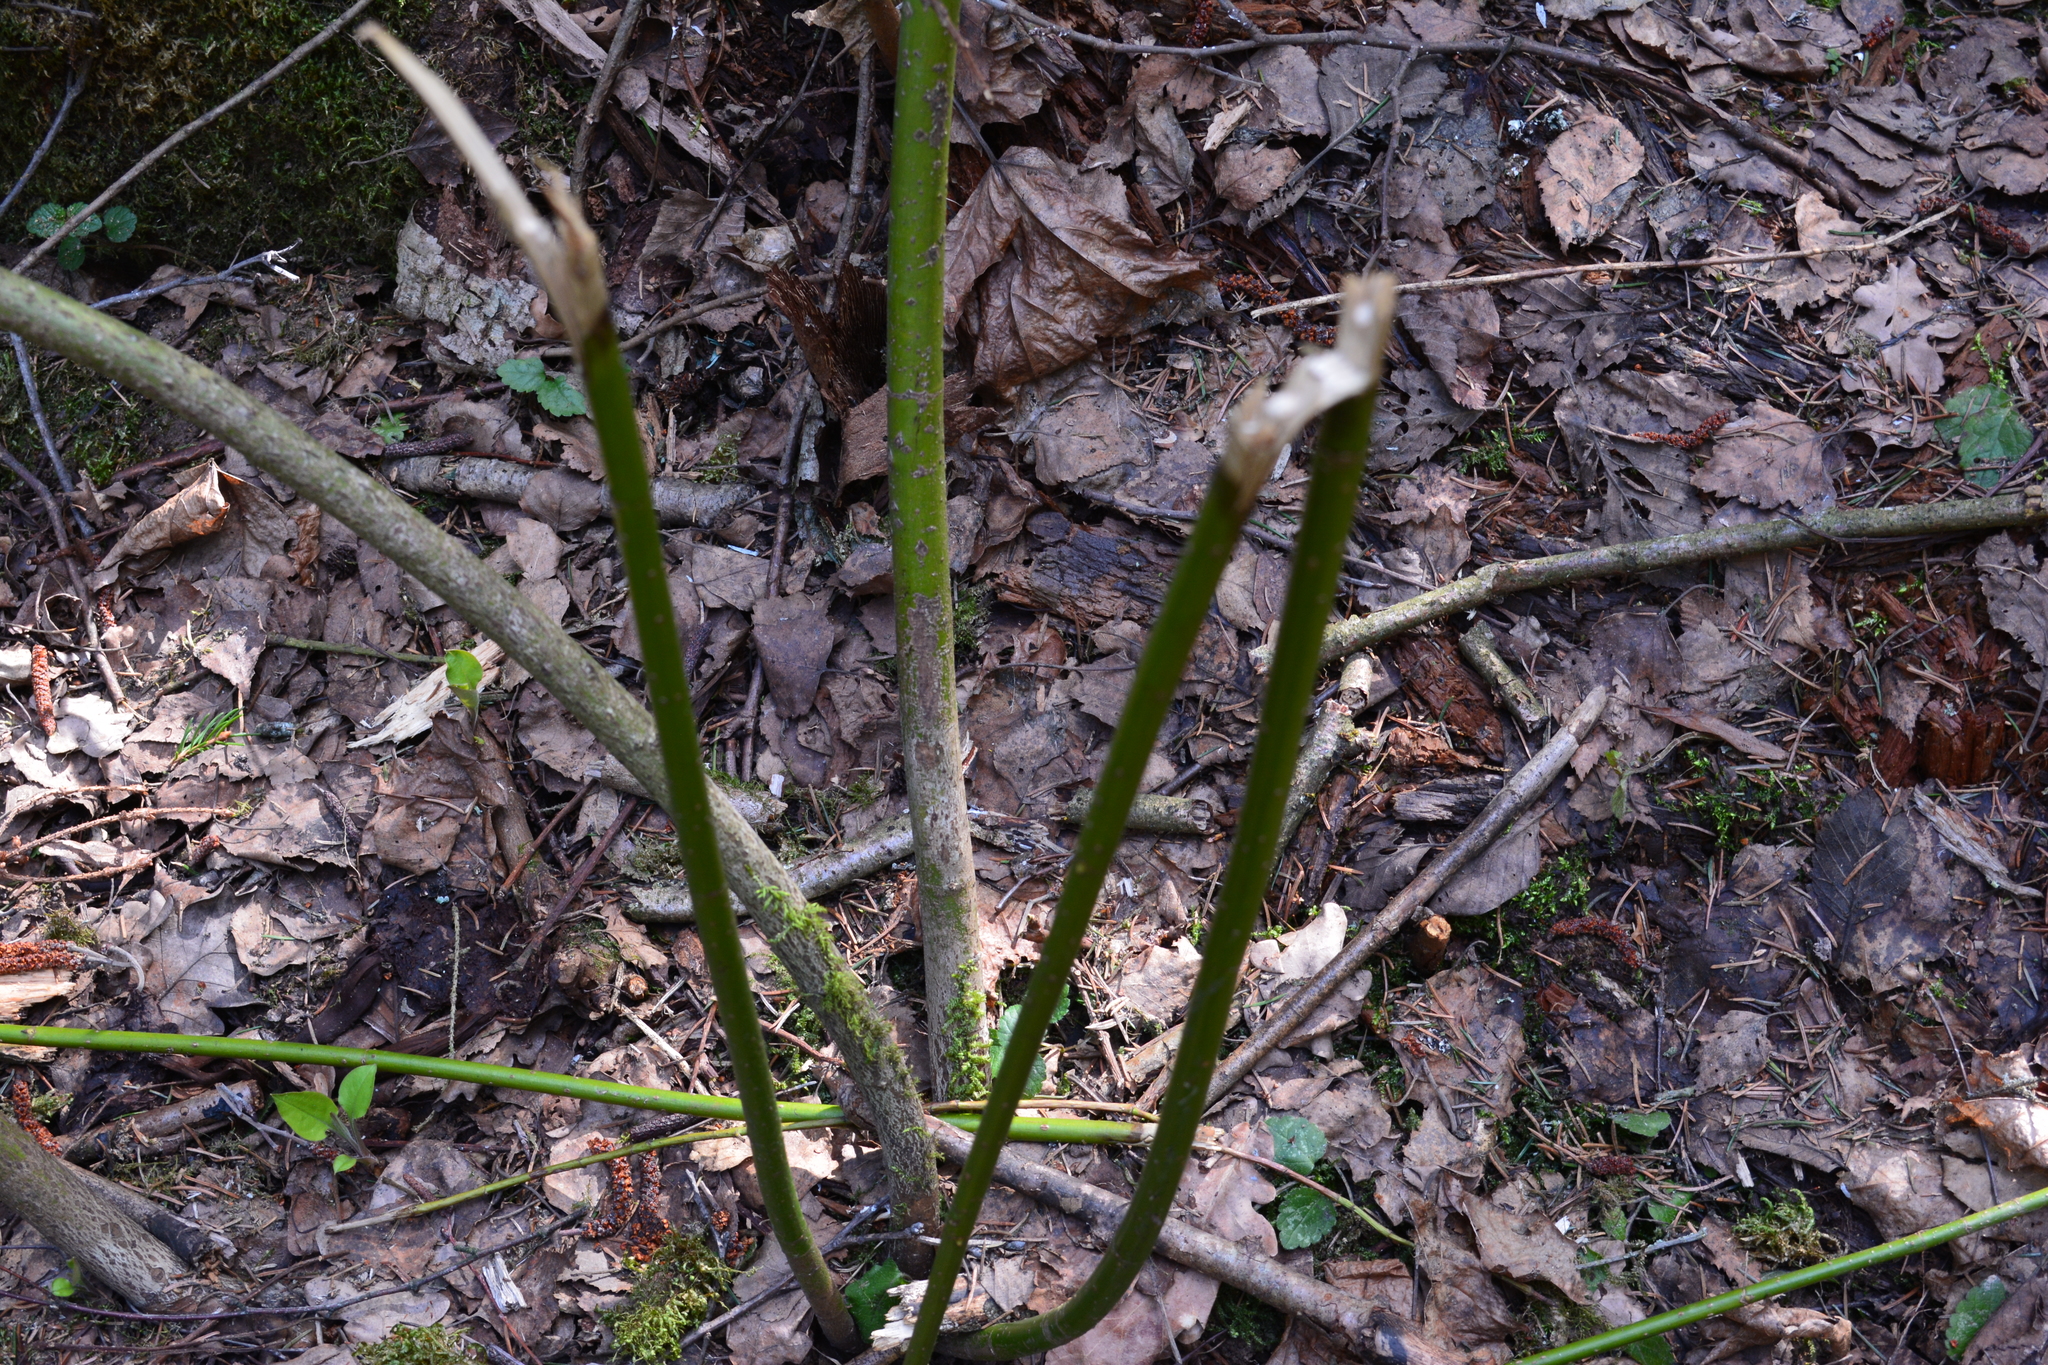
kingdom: Plantae
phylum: Tracheophyta
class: Magnoliopsida
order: Cornales
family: Cornaceae
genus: Cornus
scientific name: Cornus sericea
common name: Red-osier dogwood
